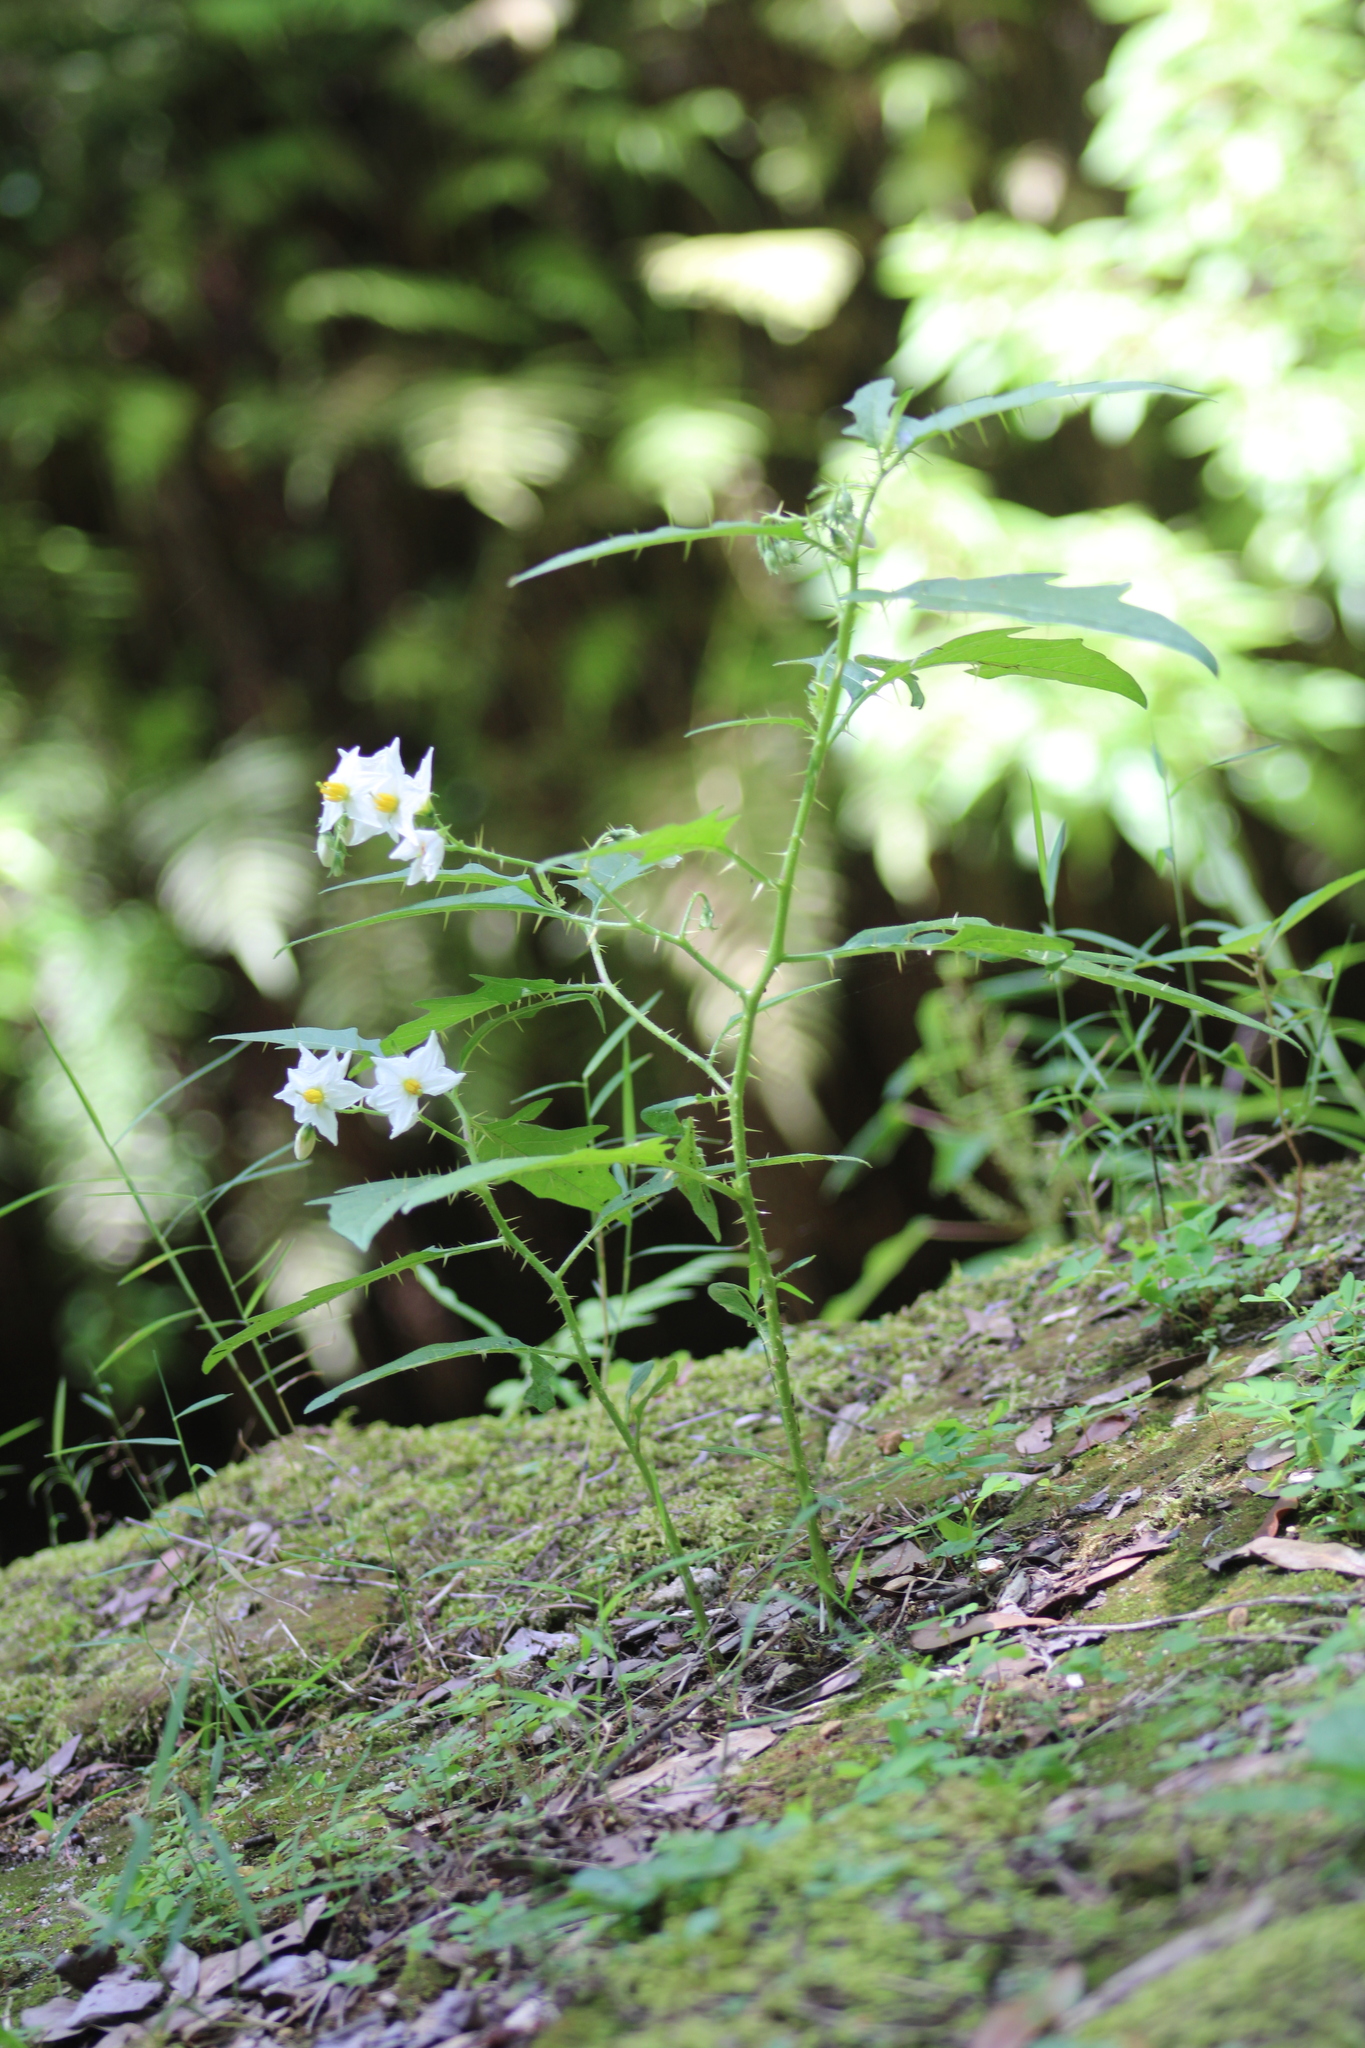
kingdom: Plantae
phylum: Tracheophyta
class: Magnoliopsida
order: Solanales
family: Solanaceae
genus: Solanum
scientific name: Solanum carolinense
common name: Horse-nettle
